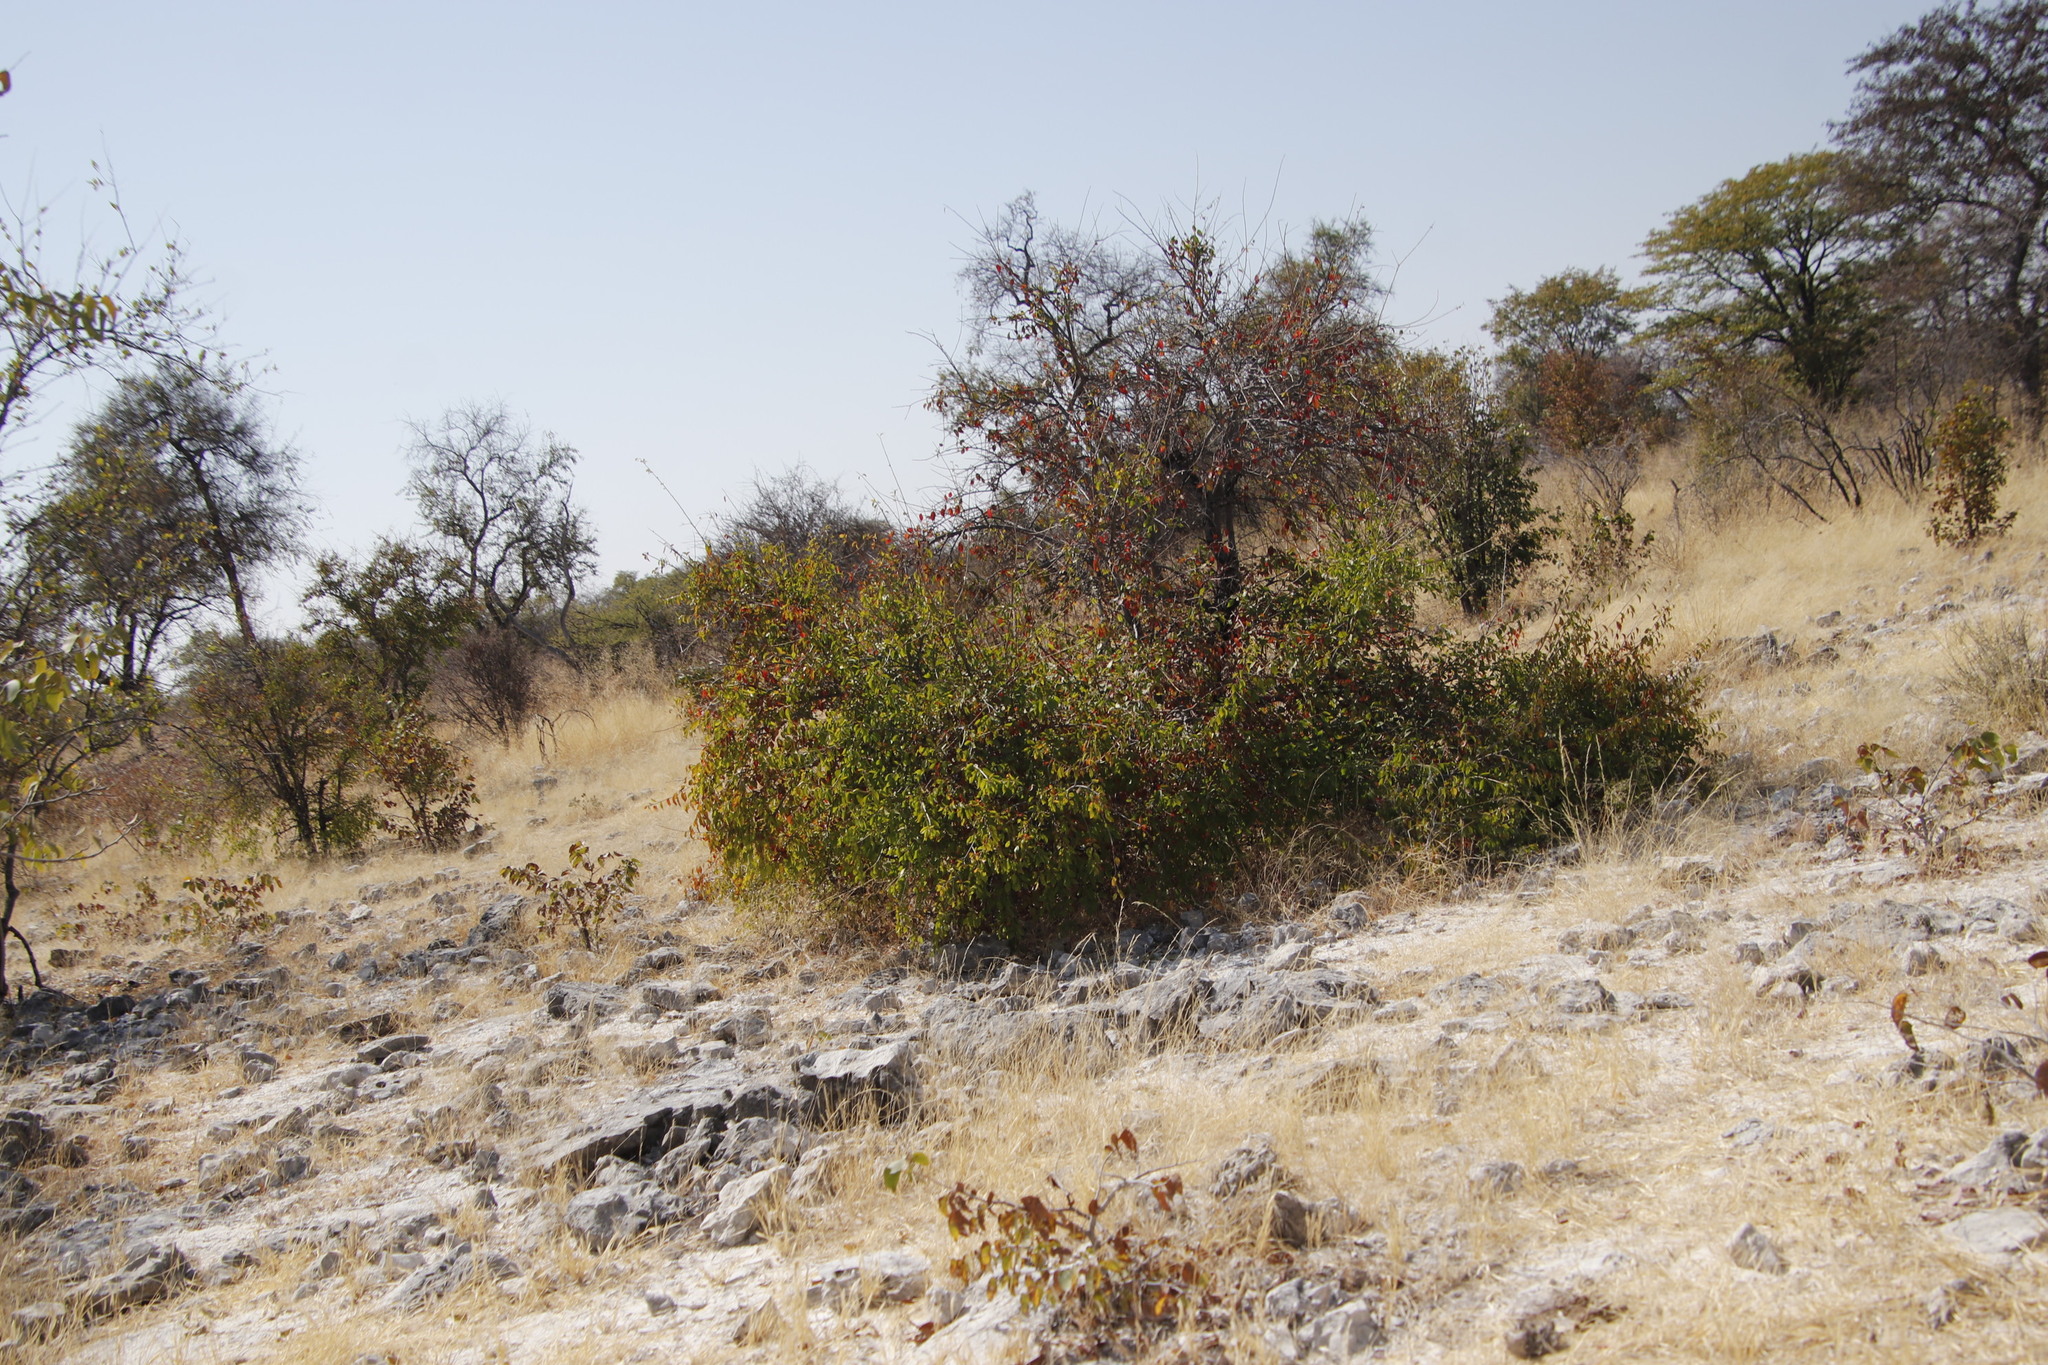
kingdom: Plantae
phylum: Tracheophyta
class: Magnoliopsida
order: Fabales
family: Fabaceae
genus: Colophospermum
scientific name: Colophospermum mopane
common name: Mopane
